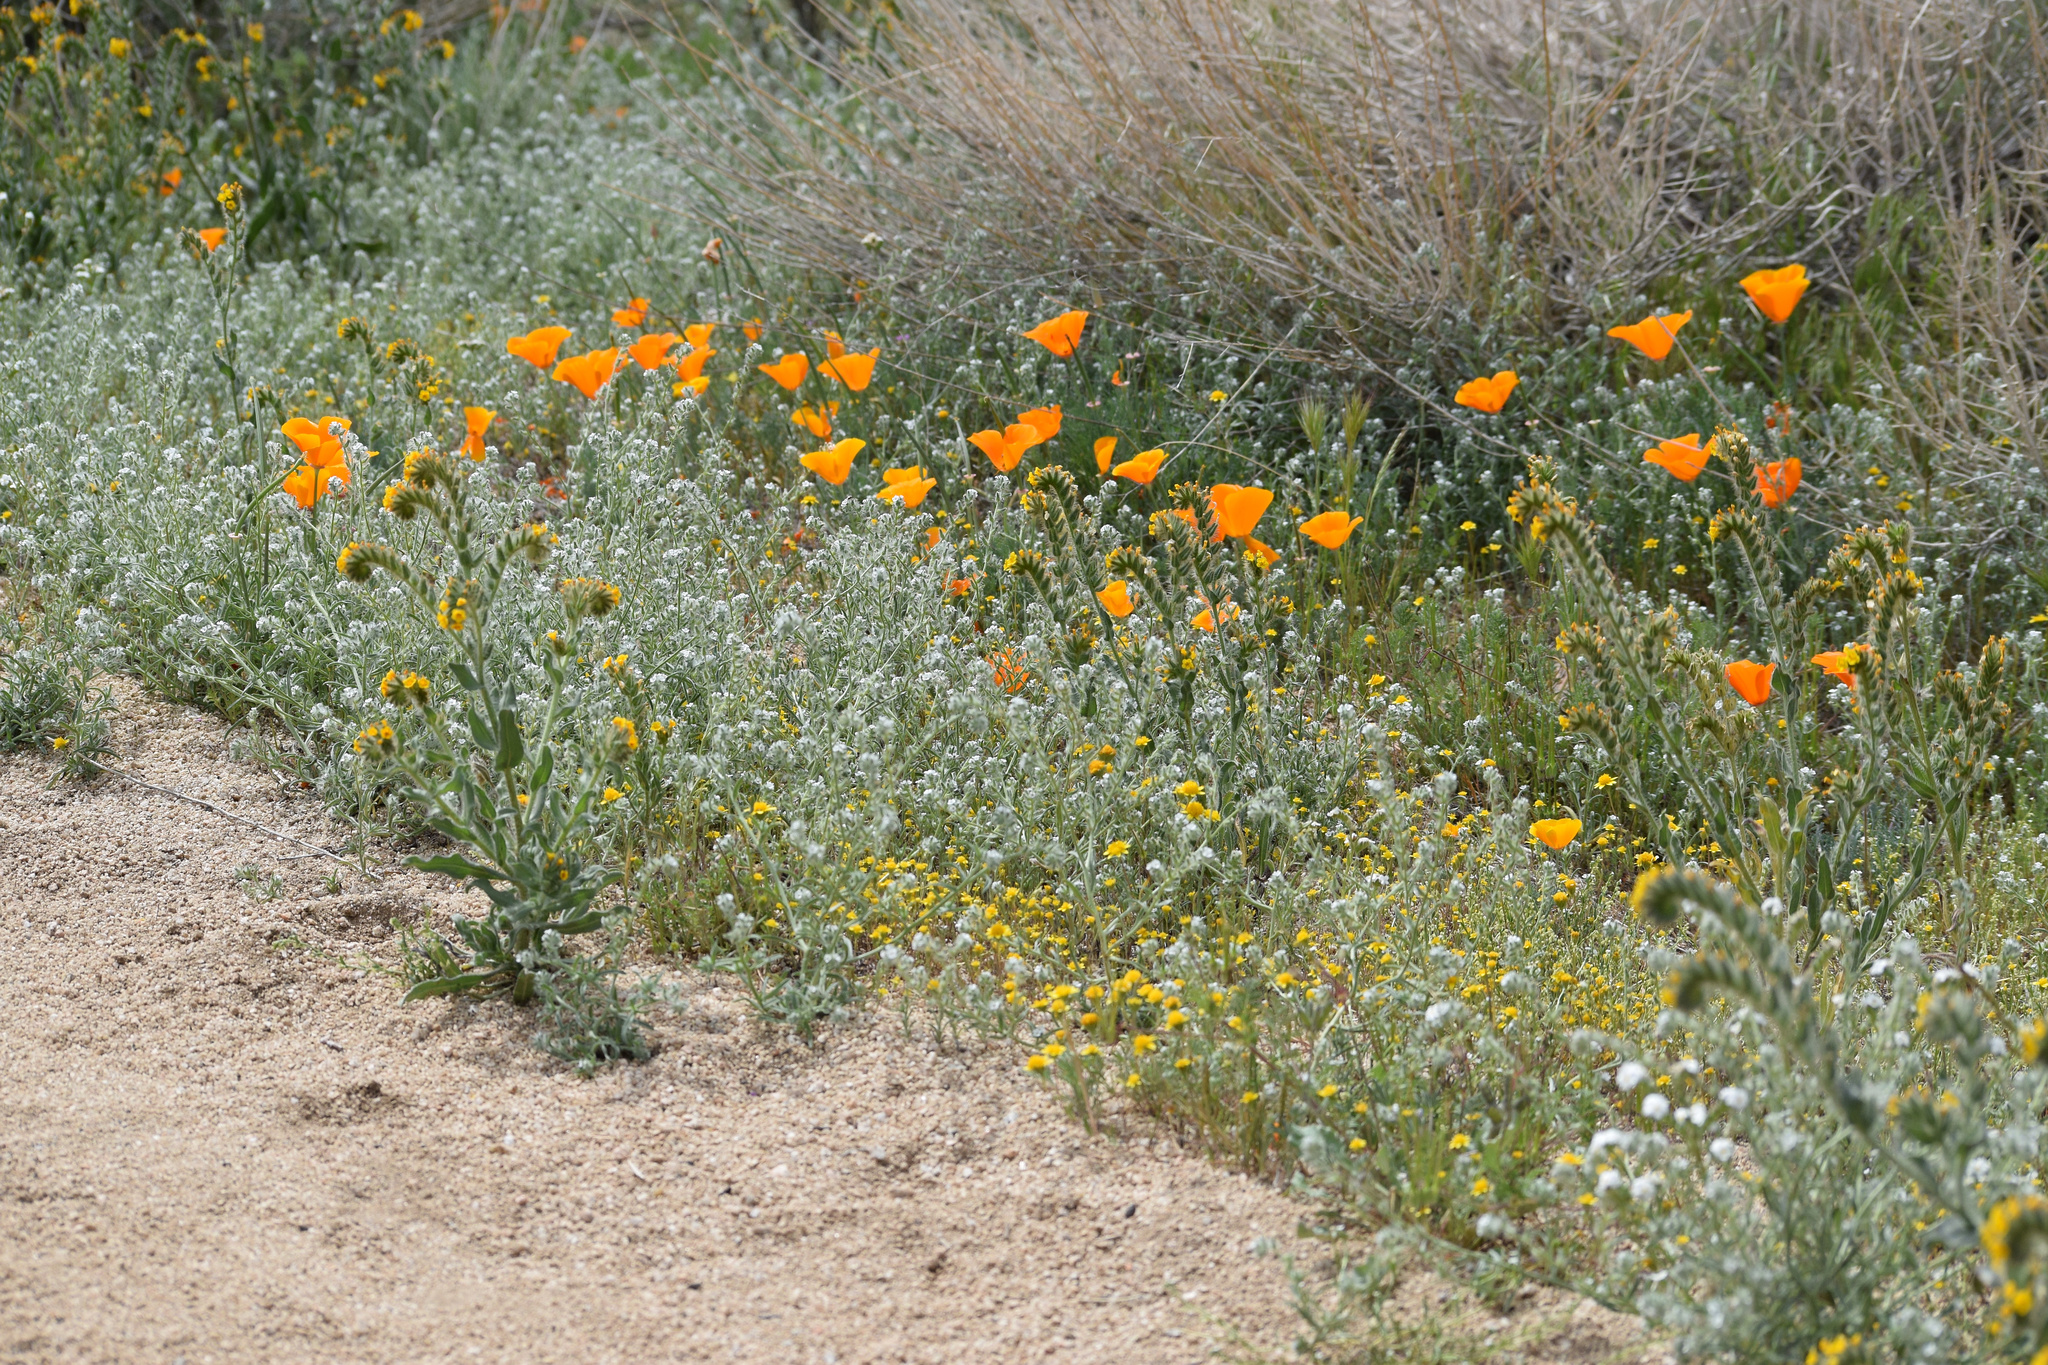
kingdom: Plantae
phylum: Tracheophyta
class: Magnoliopsida
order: Ranunculales
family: Papaveraceae
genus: Eschscholzia
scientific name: Eschscholzia californica
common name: California poppy
